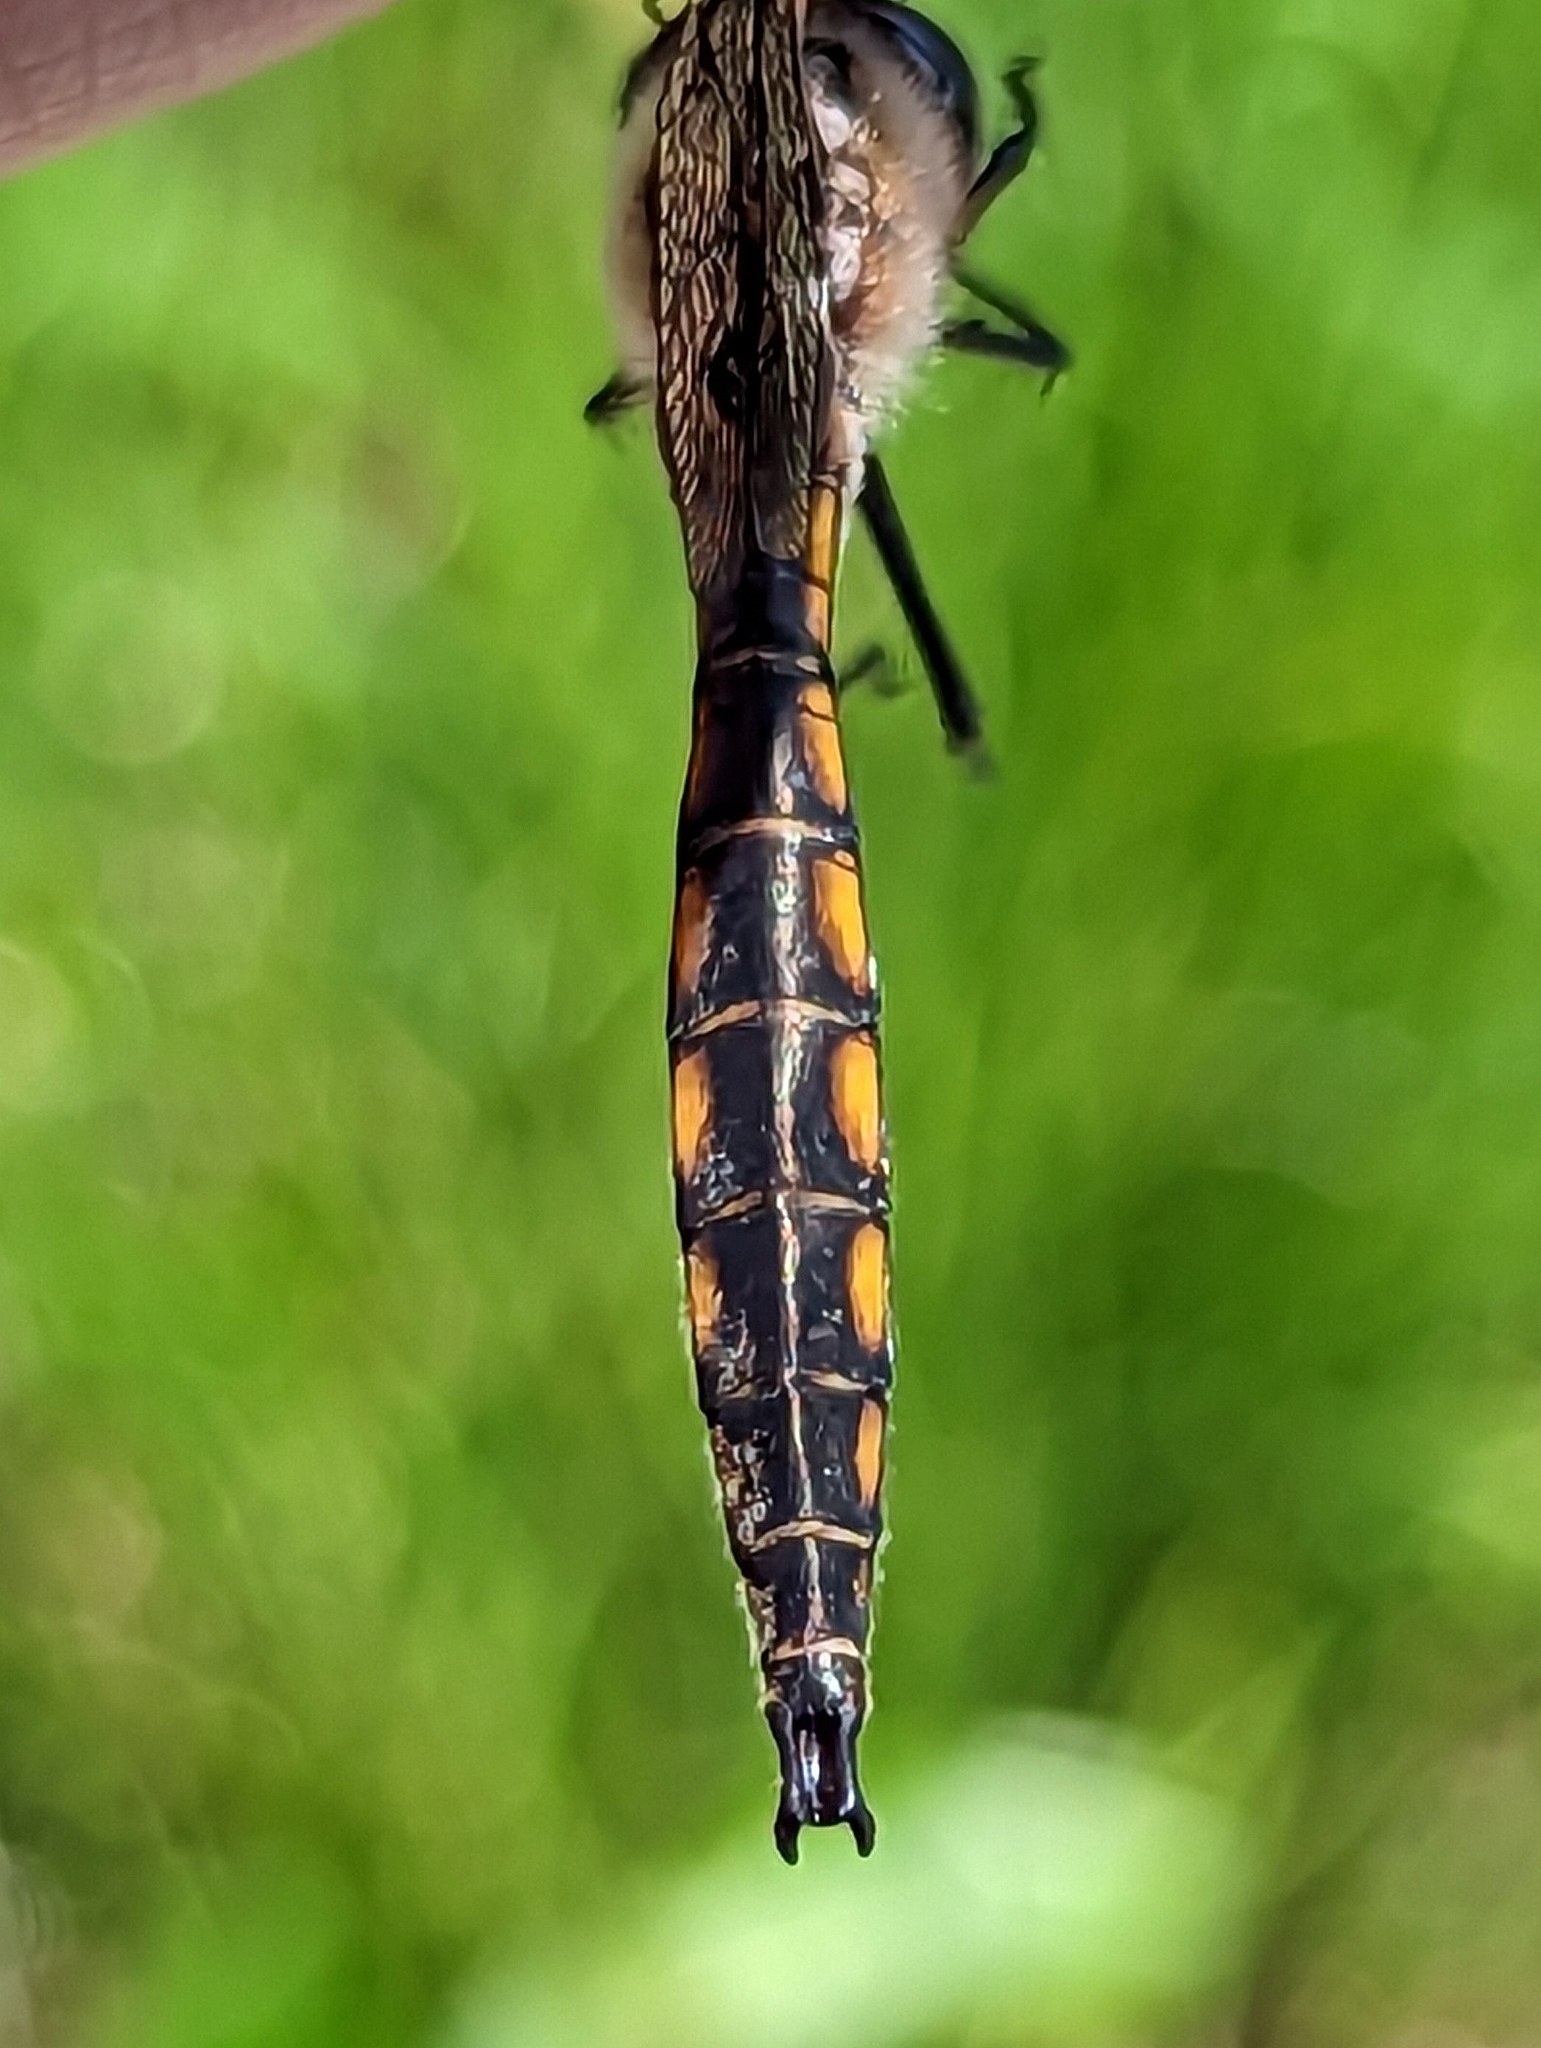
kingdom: Animalia
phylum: Arthropoda
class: Insecta
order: Odonata
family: Corduliidae
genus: Epitheca
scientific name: Epitheca canis
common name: Beaverpond baskettail
